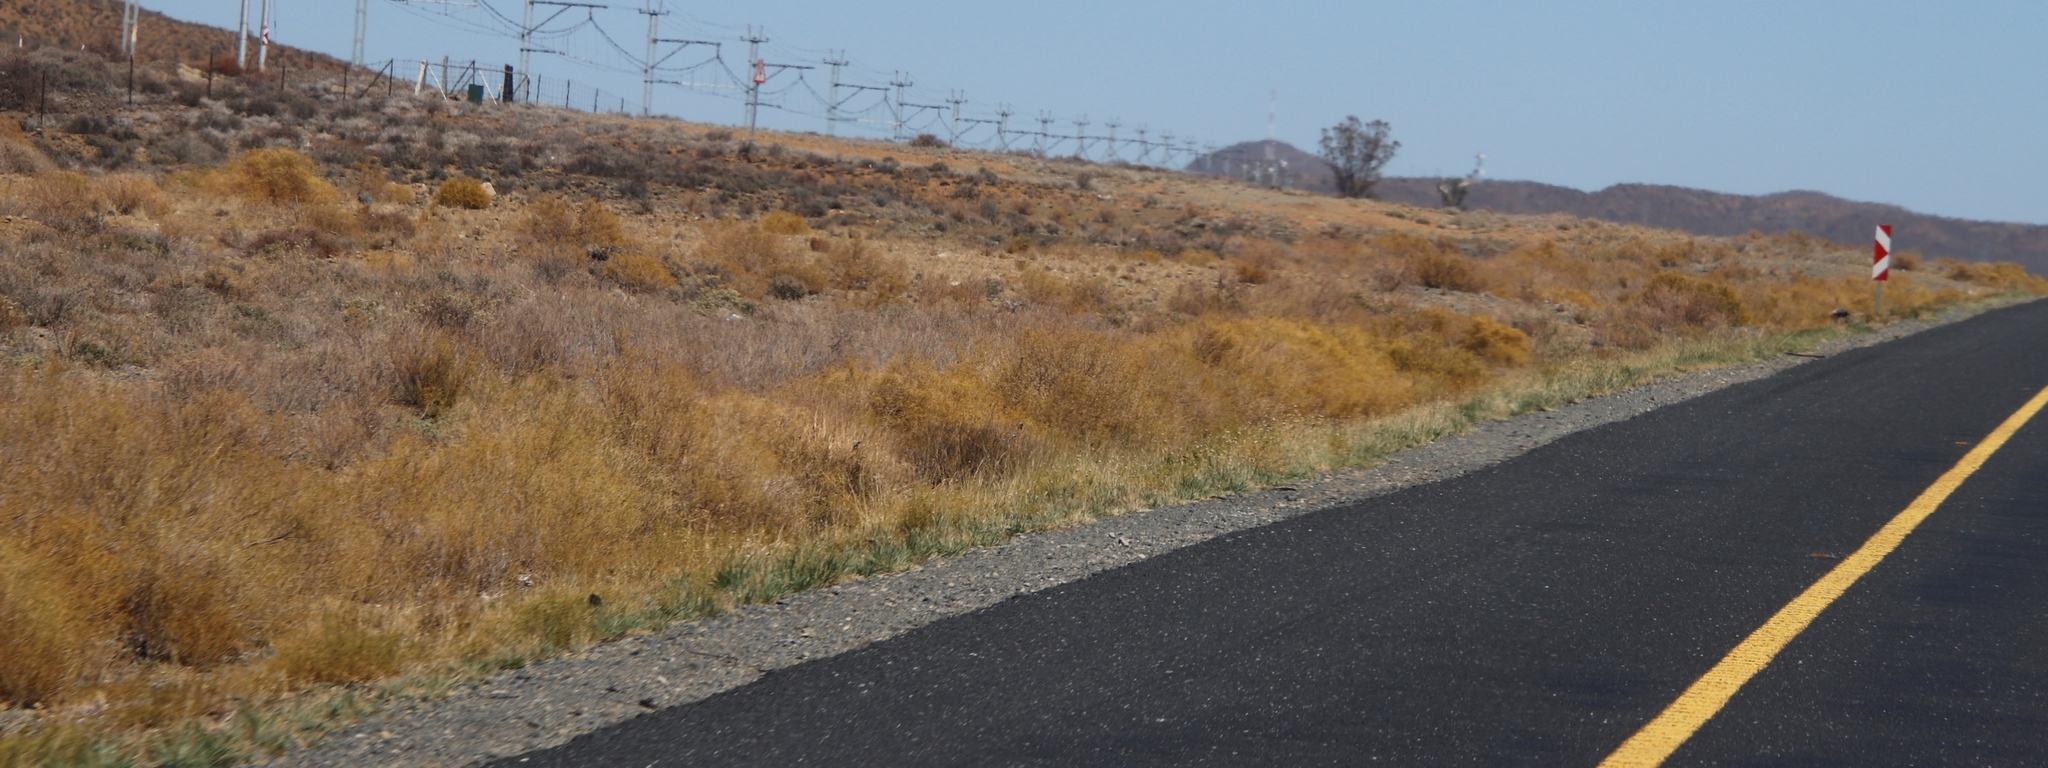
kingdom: Plantae
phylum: Tracheophyta
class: Magnoliopsida
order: Caryophyllales
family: Aizoaceae
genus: Aizoon
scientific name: Aizoon africanum
